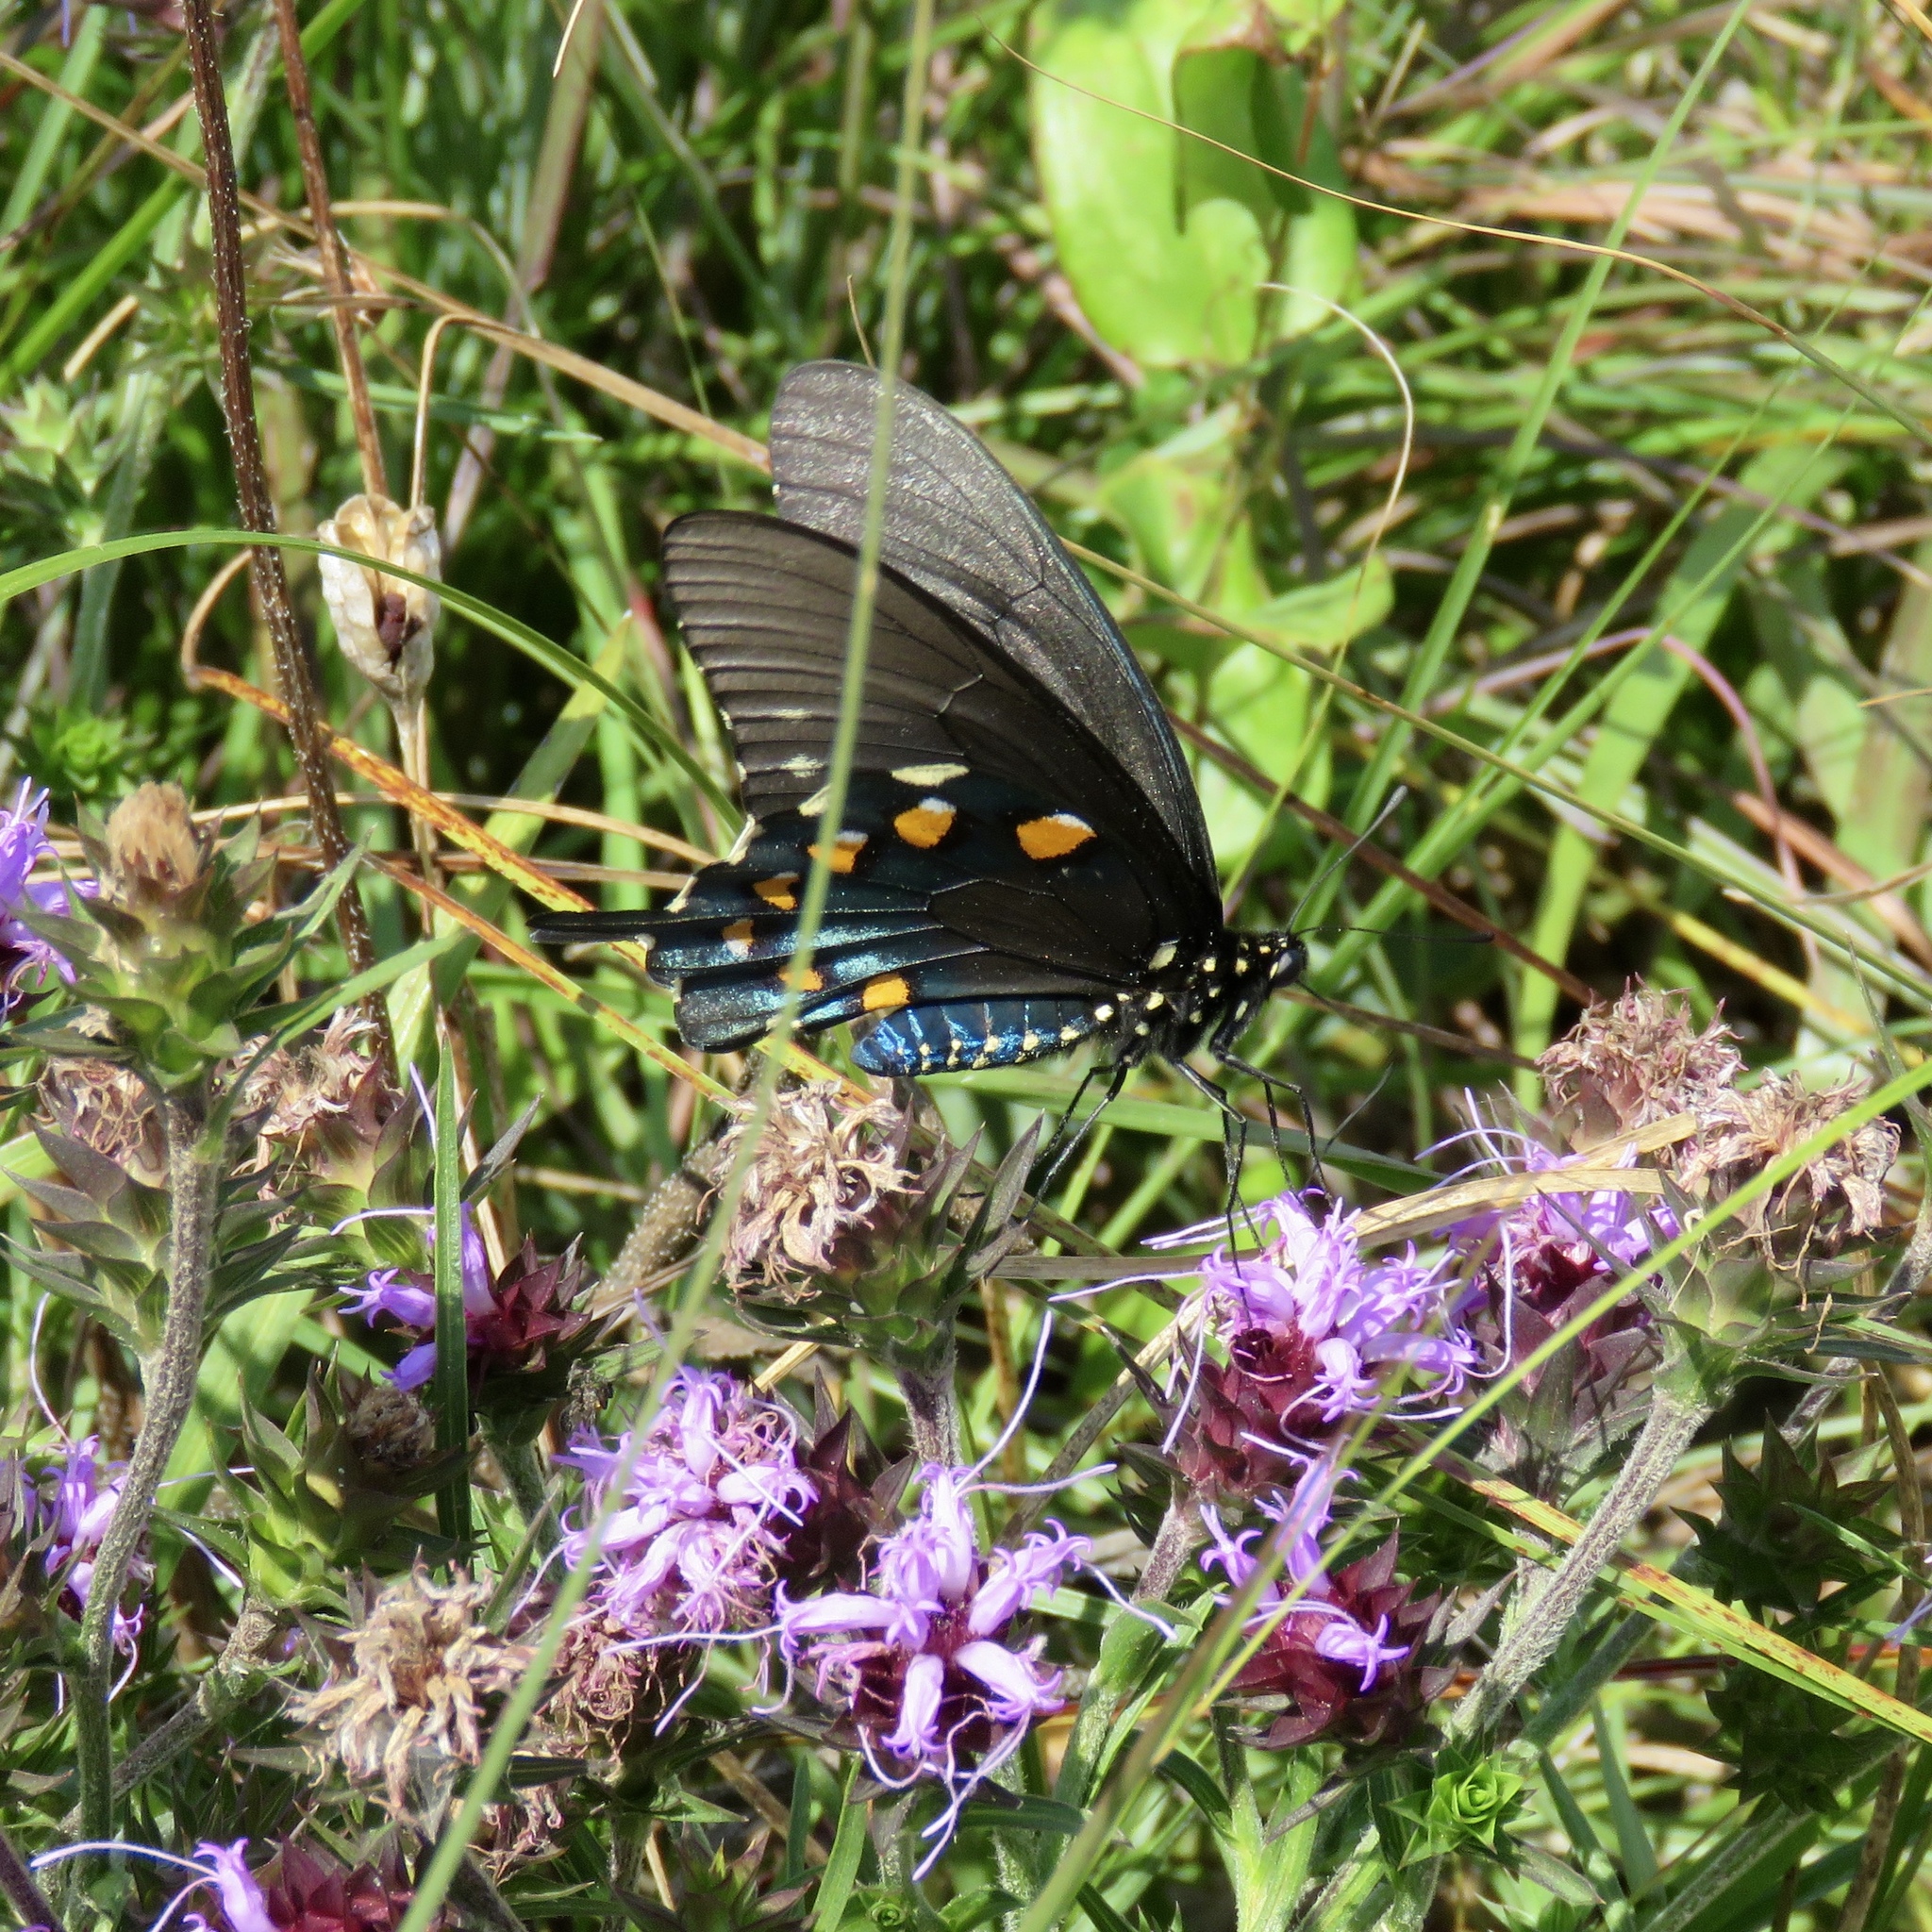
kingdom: Animalia
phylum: Arthropoda
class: Insecta
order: Lepidoptera
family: Papilionidae
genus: Battus
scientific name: Battus philenor
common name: Pipevine swallowtail
